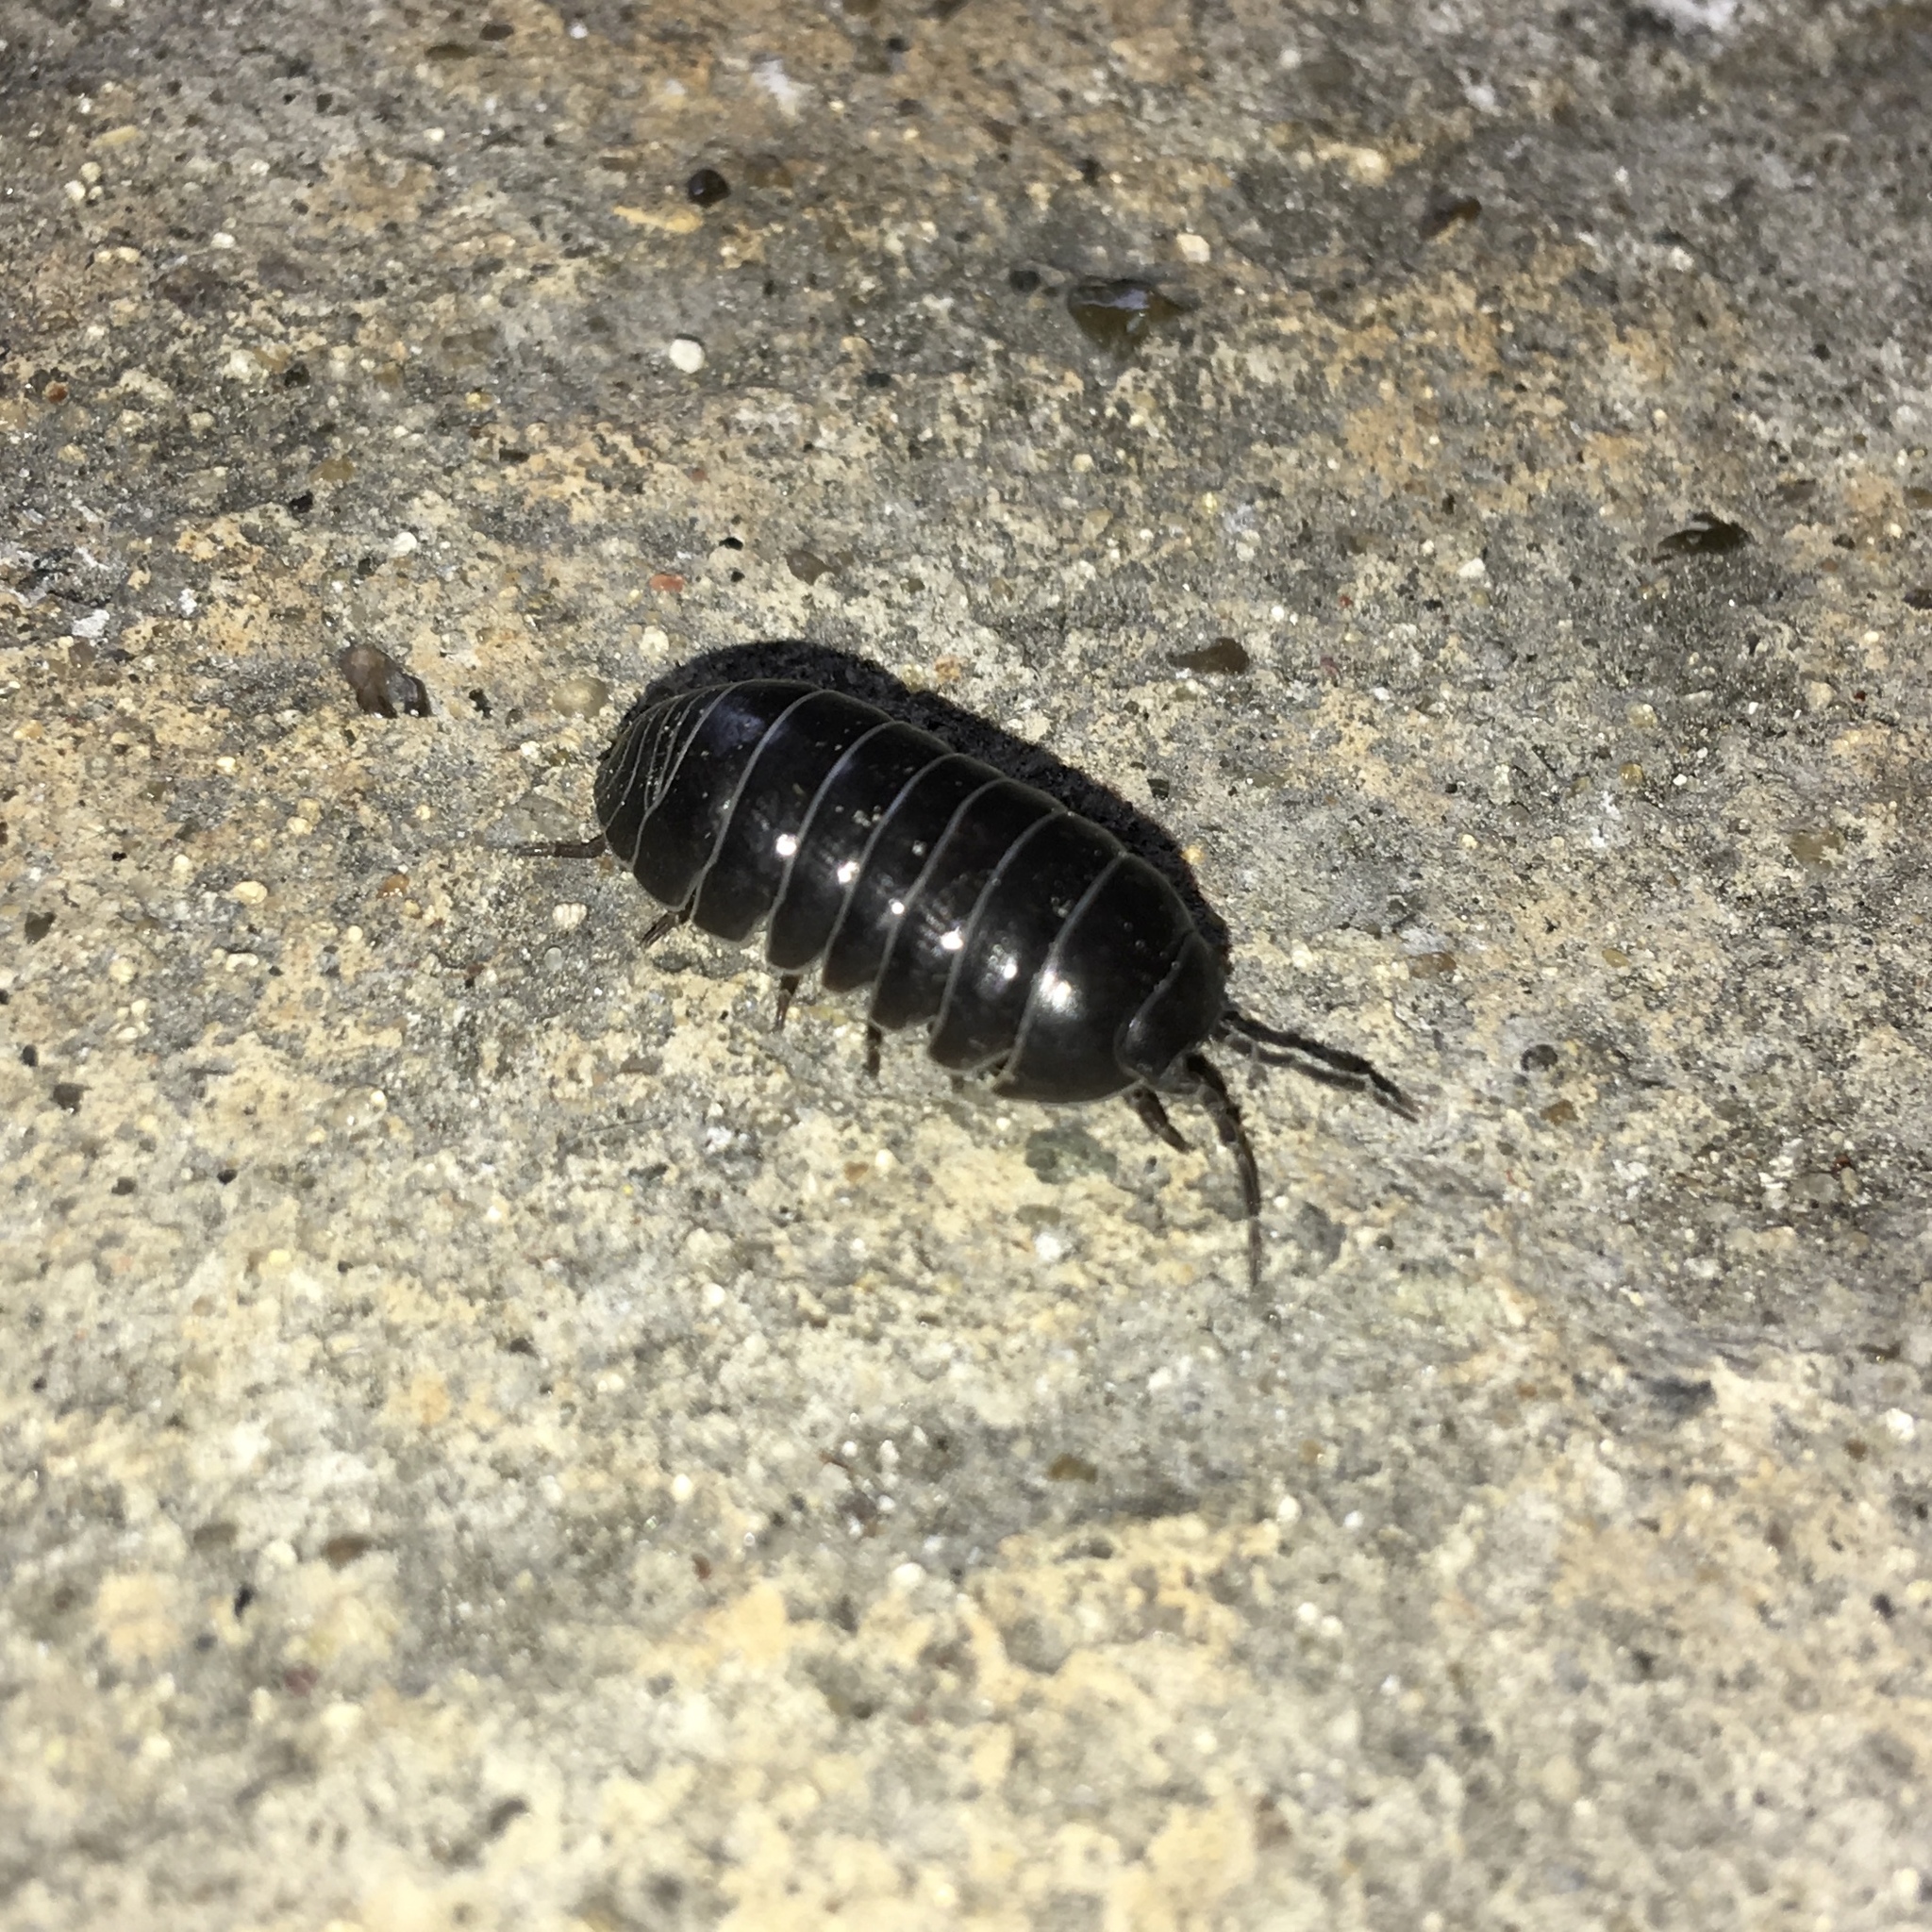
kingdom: Animalia
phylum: Arthropoda
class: Malacostraca
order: Isopoda
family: Armadillidiidae
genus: Armadillidium
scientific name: Armadillidium vulgare
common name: Common pill woodlouse
